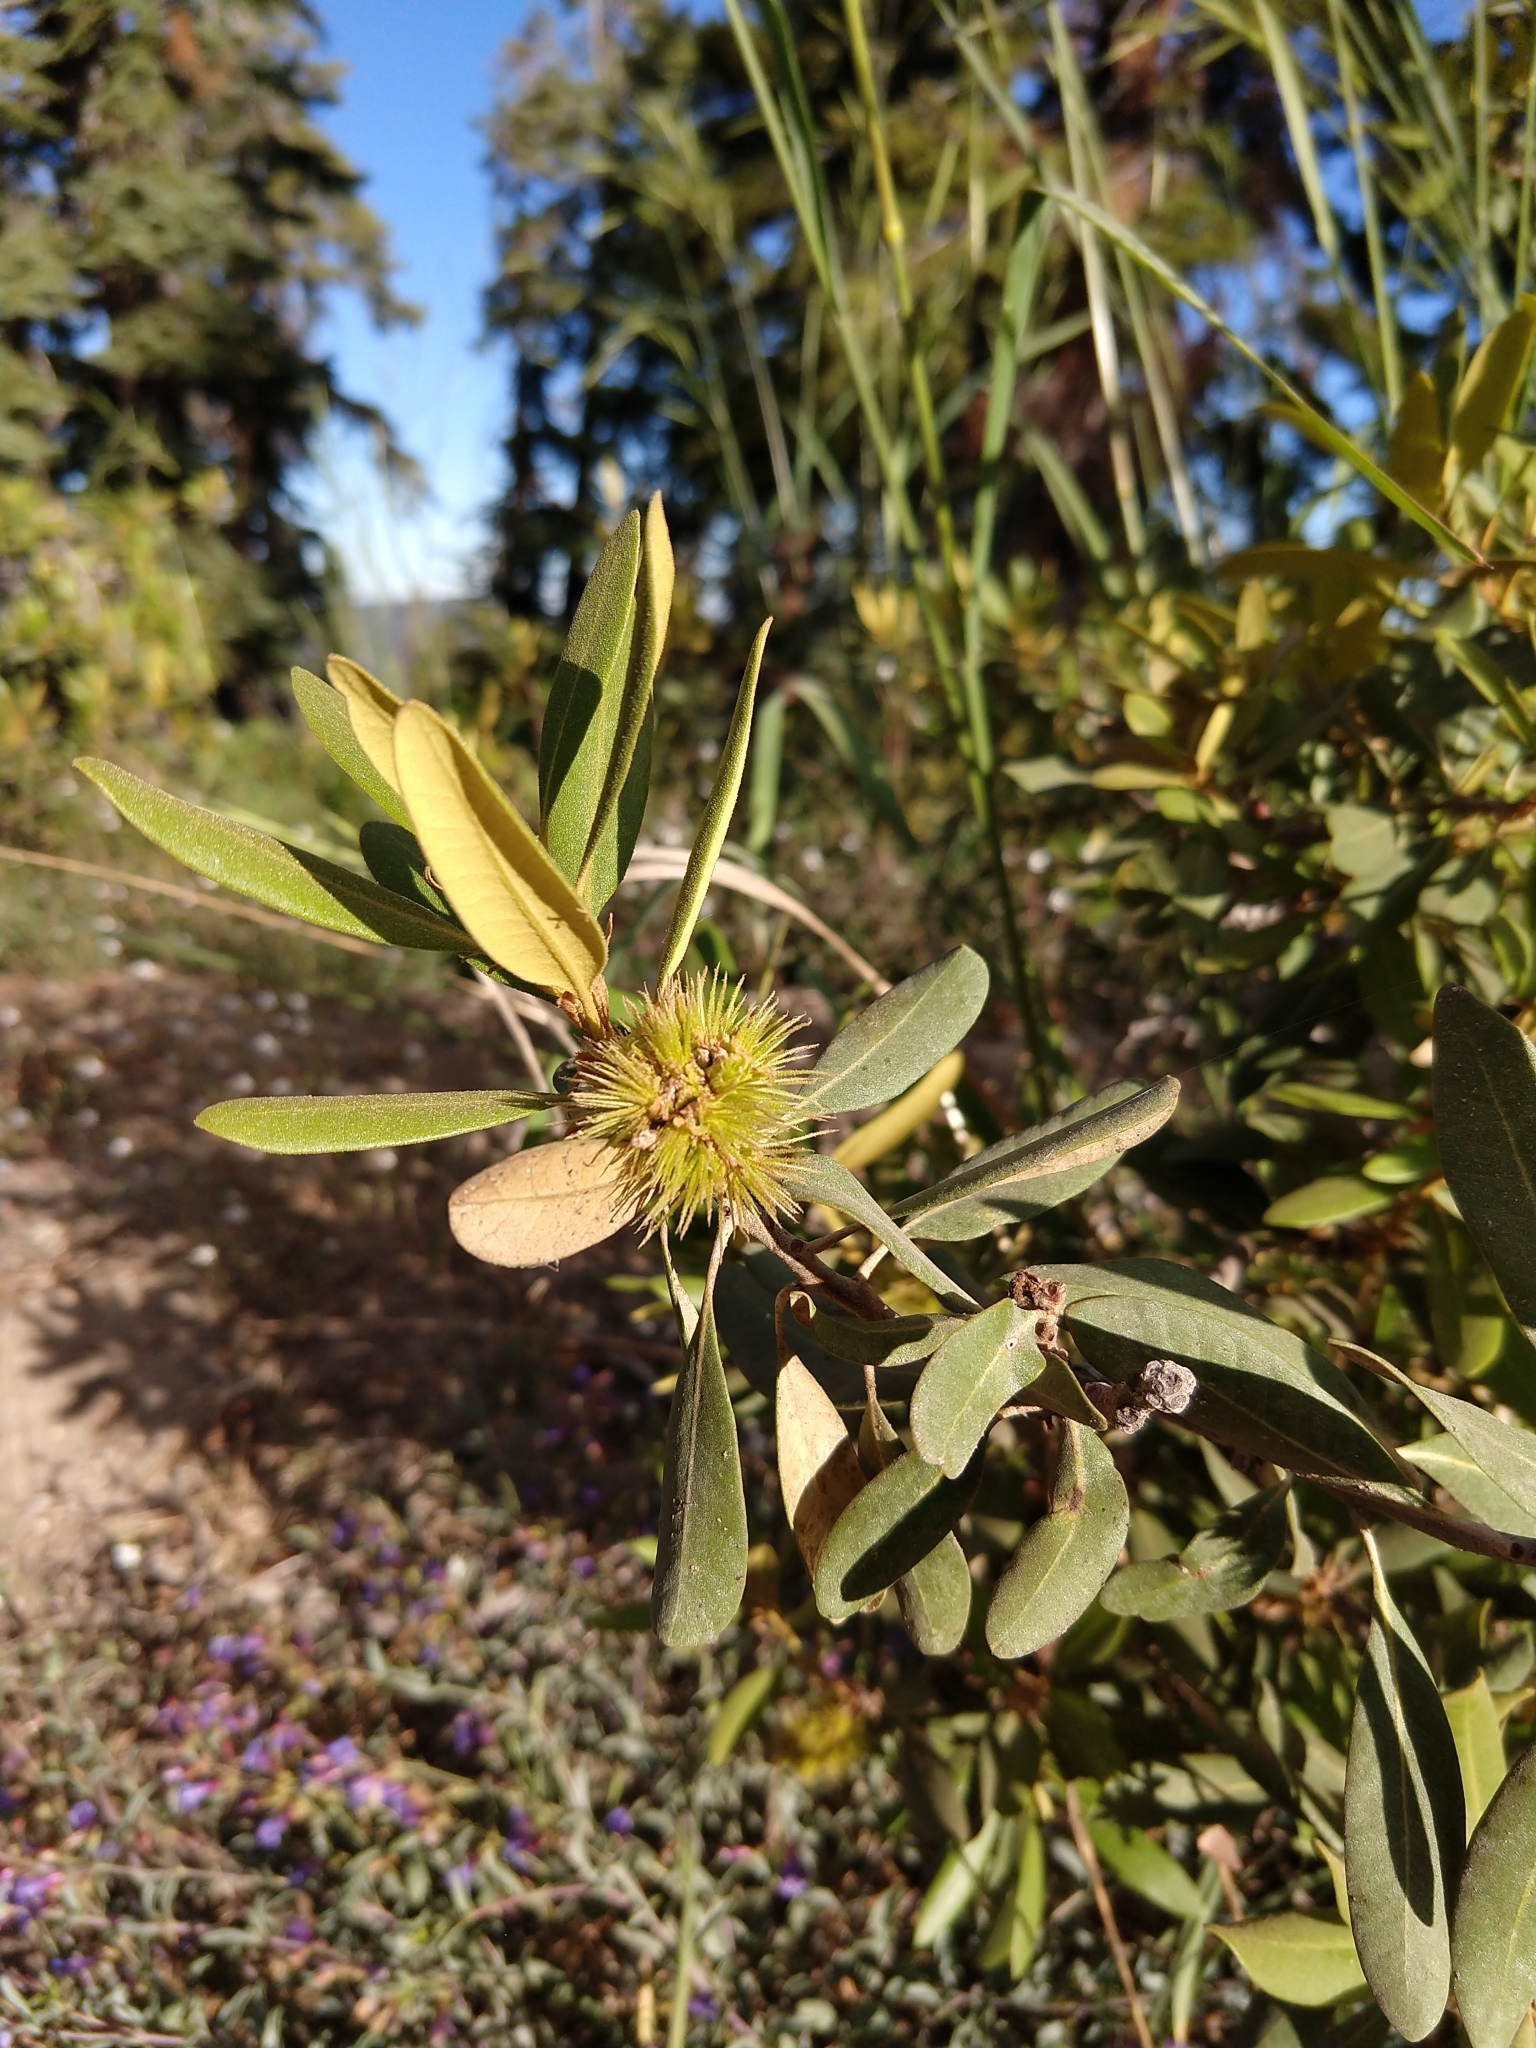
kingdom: Plantae
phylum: Tracheophyta
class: Magnoliopsida
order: Fagales
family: Fagaceae
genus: Chrysolepis
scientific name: Chrysolepis sempervirens
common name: Bush chinquapin
